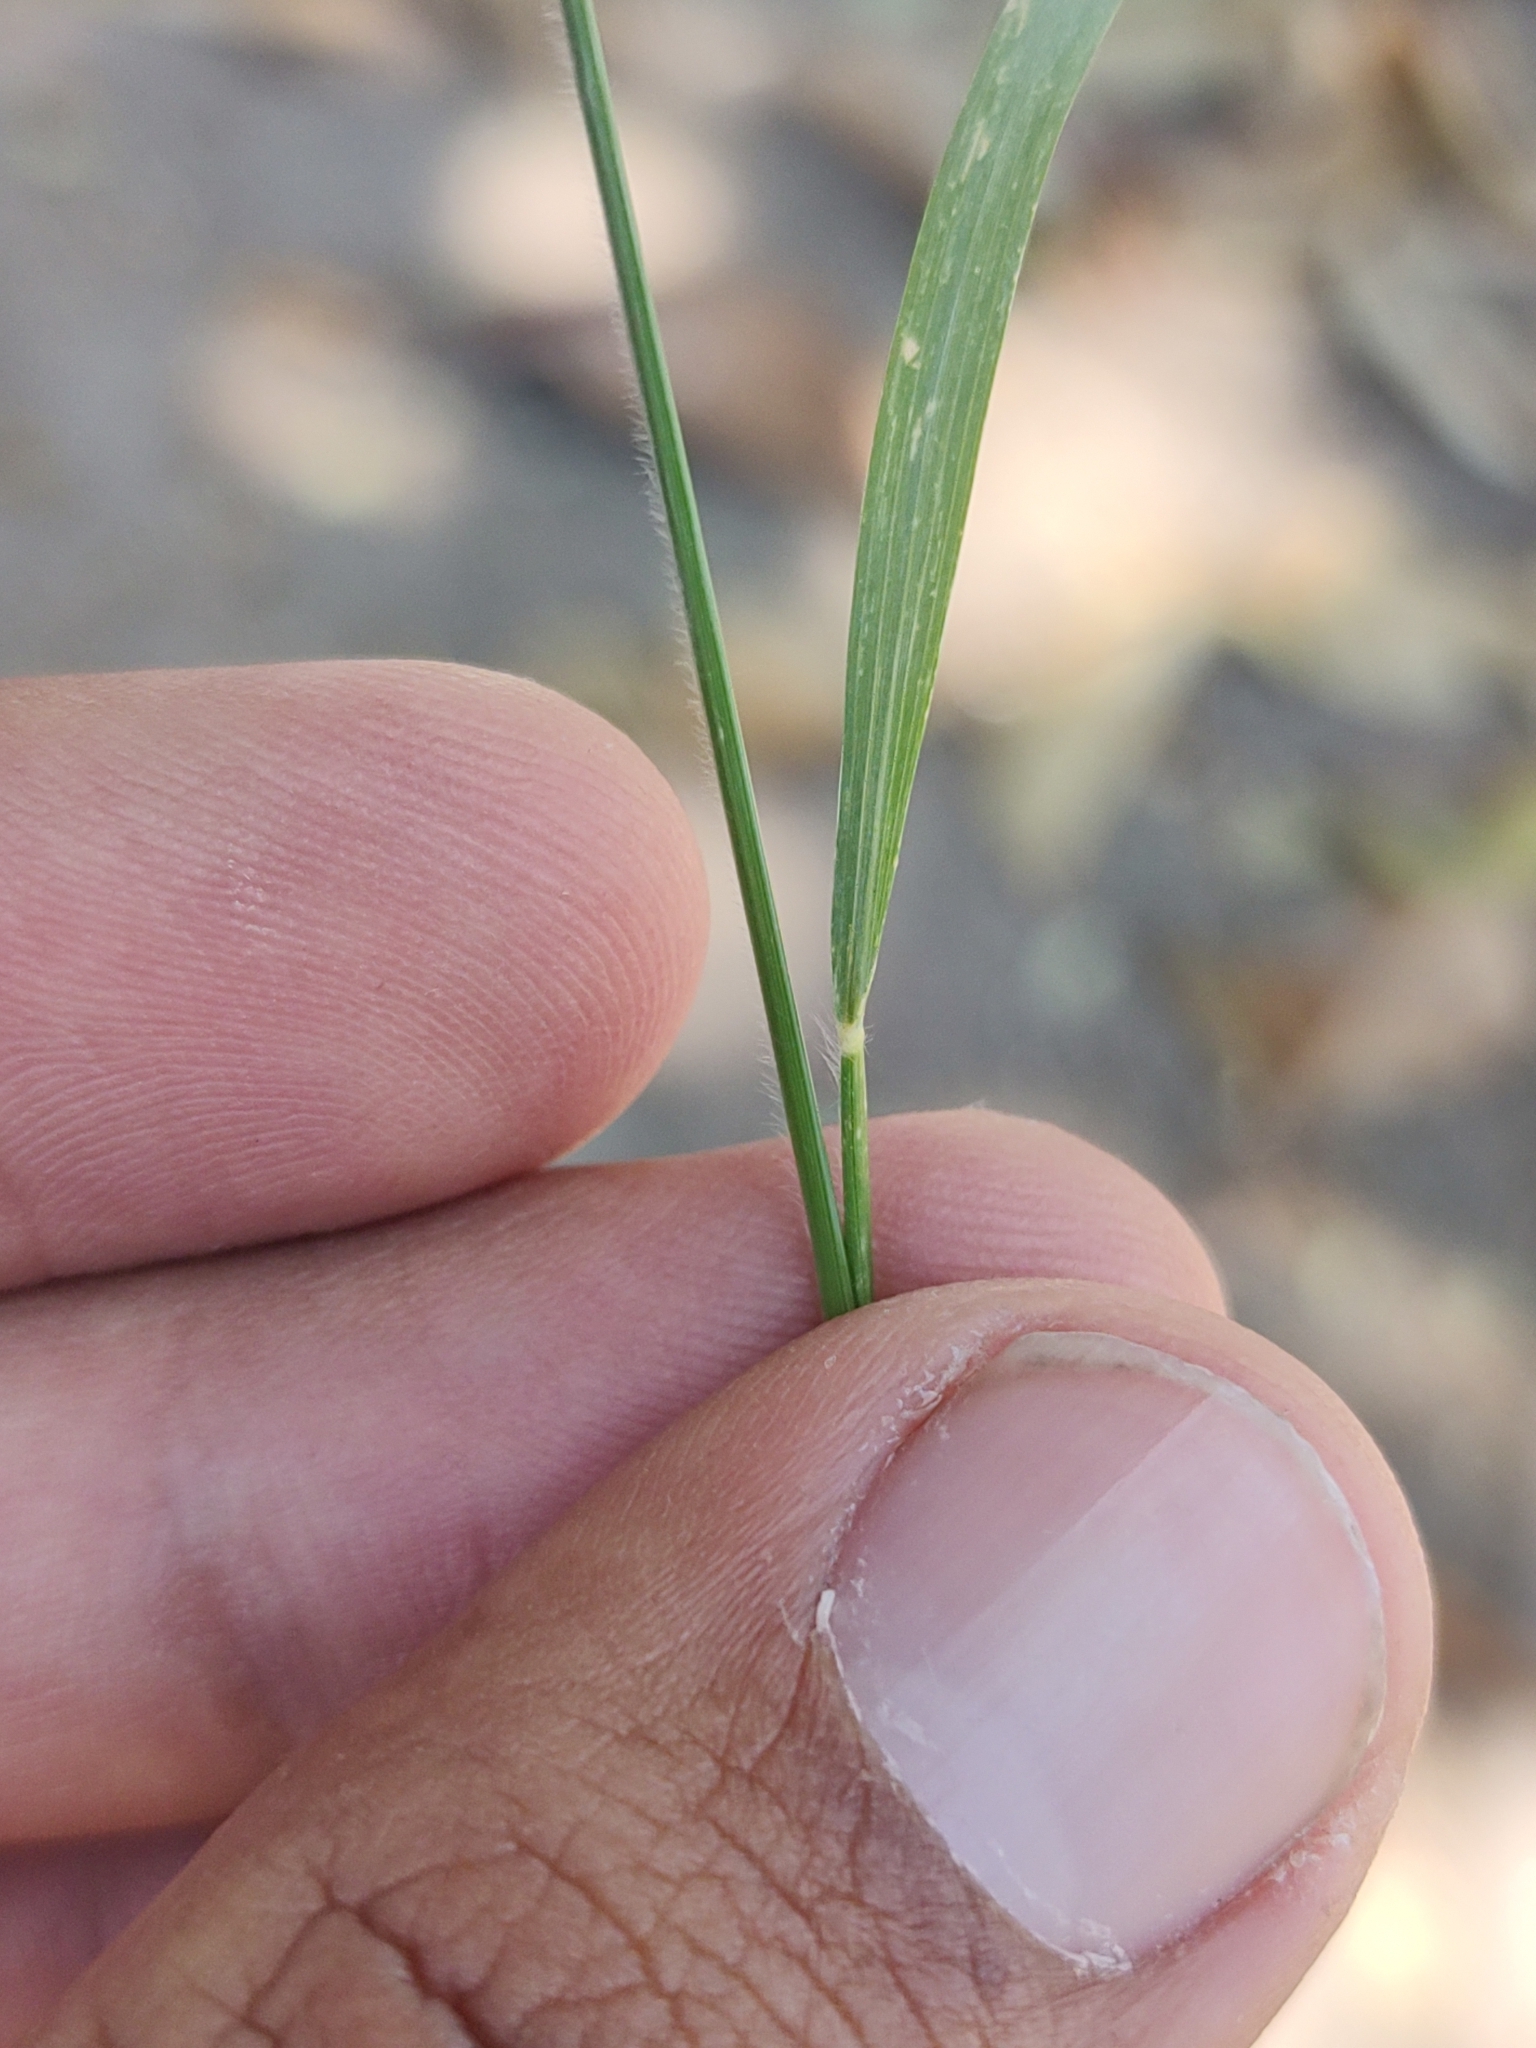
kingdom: Plantae
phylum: Tracheophyta
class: Liliopsida
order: Poales
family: Poaceae
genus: Eragrostis
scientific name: Eragrostis tenuifolia
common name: Elastic grass
